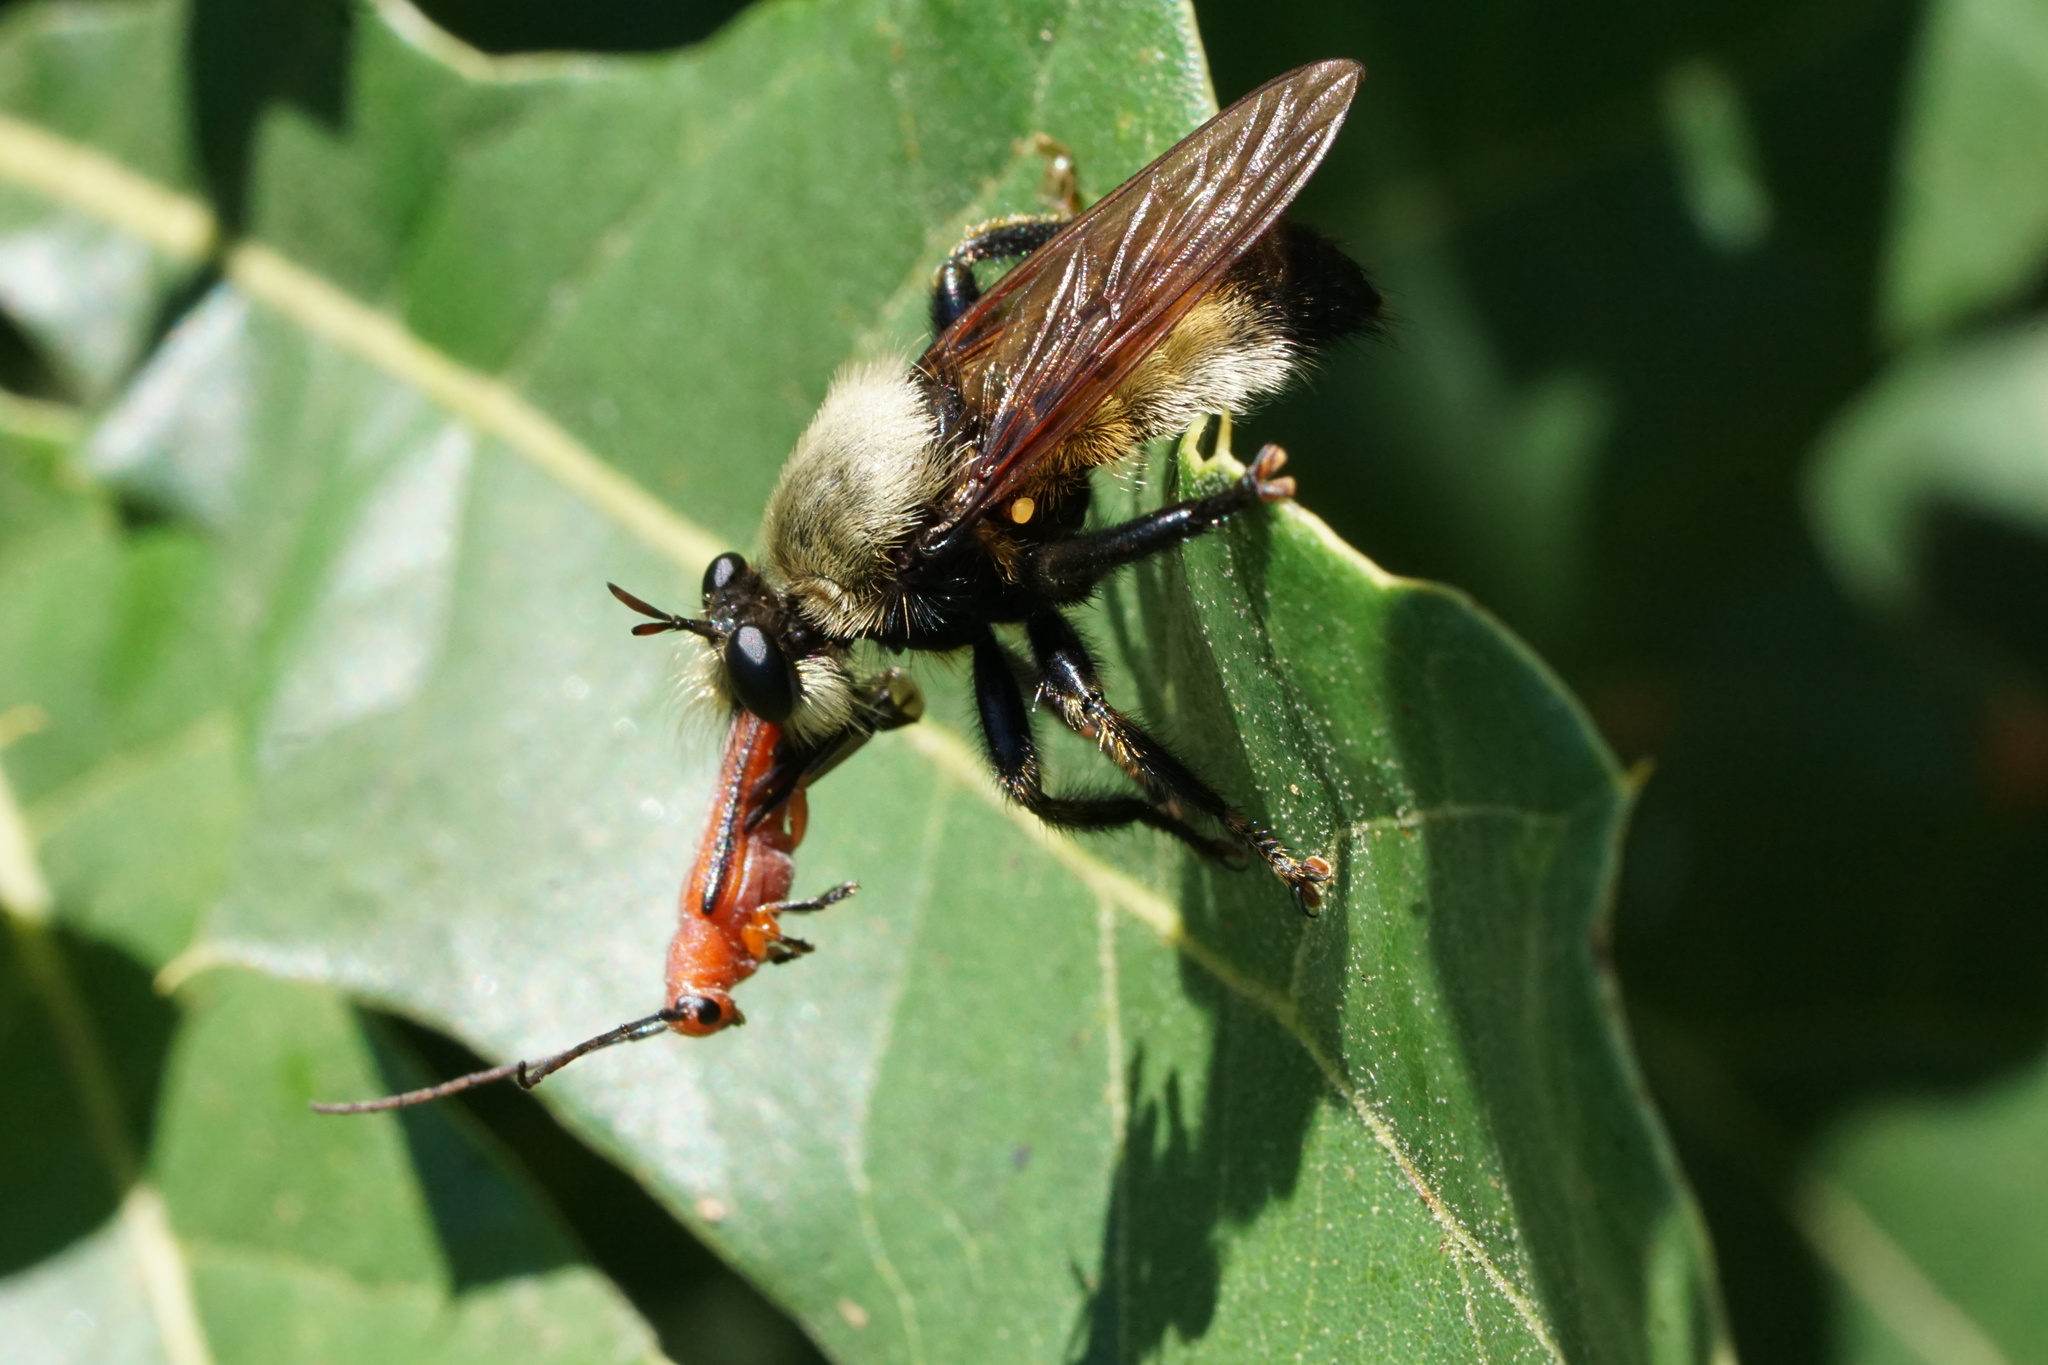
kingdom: Animalia
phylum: Arthropoda
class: Insecta
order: Coleoptera
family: Cerambycidae
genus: Oberea
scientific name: Oberea gracilis
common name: Oak sprout oberea
